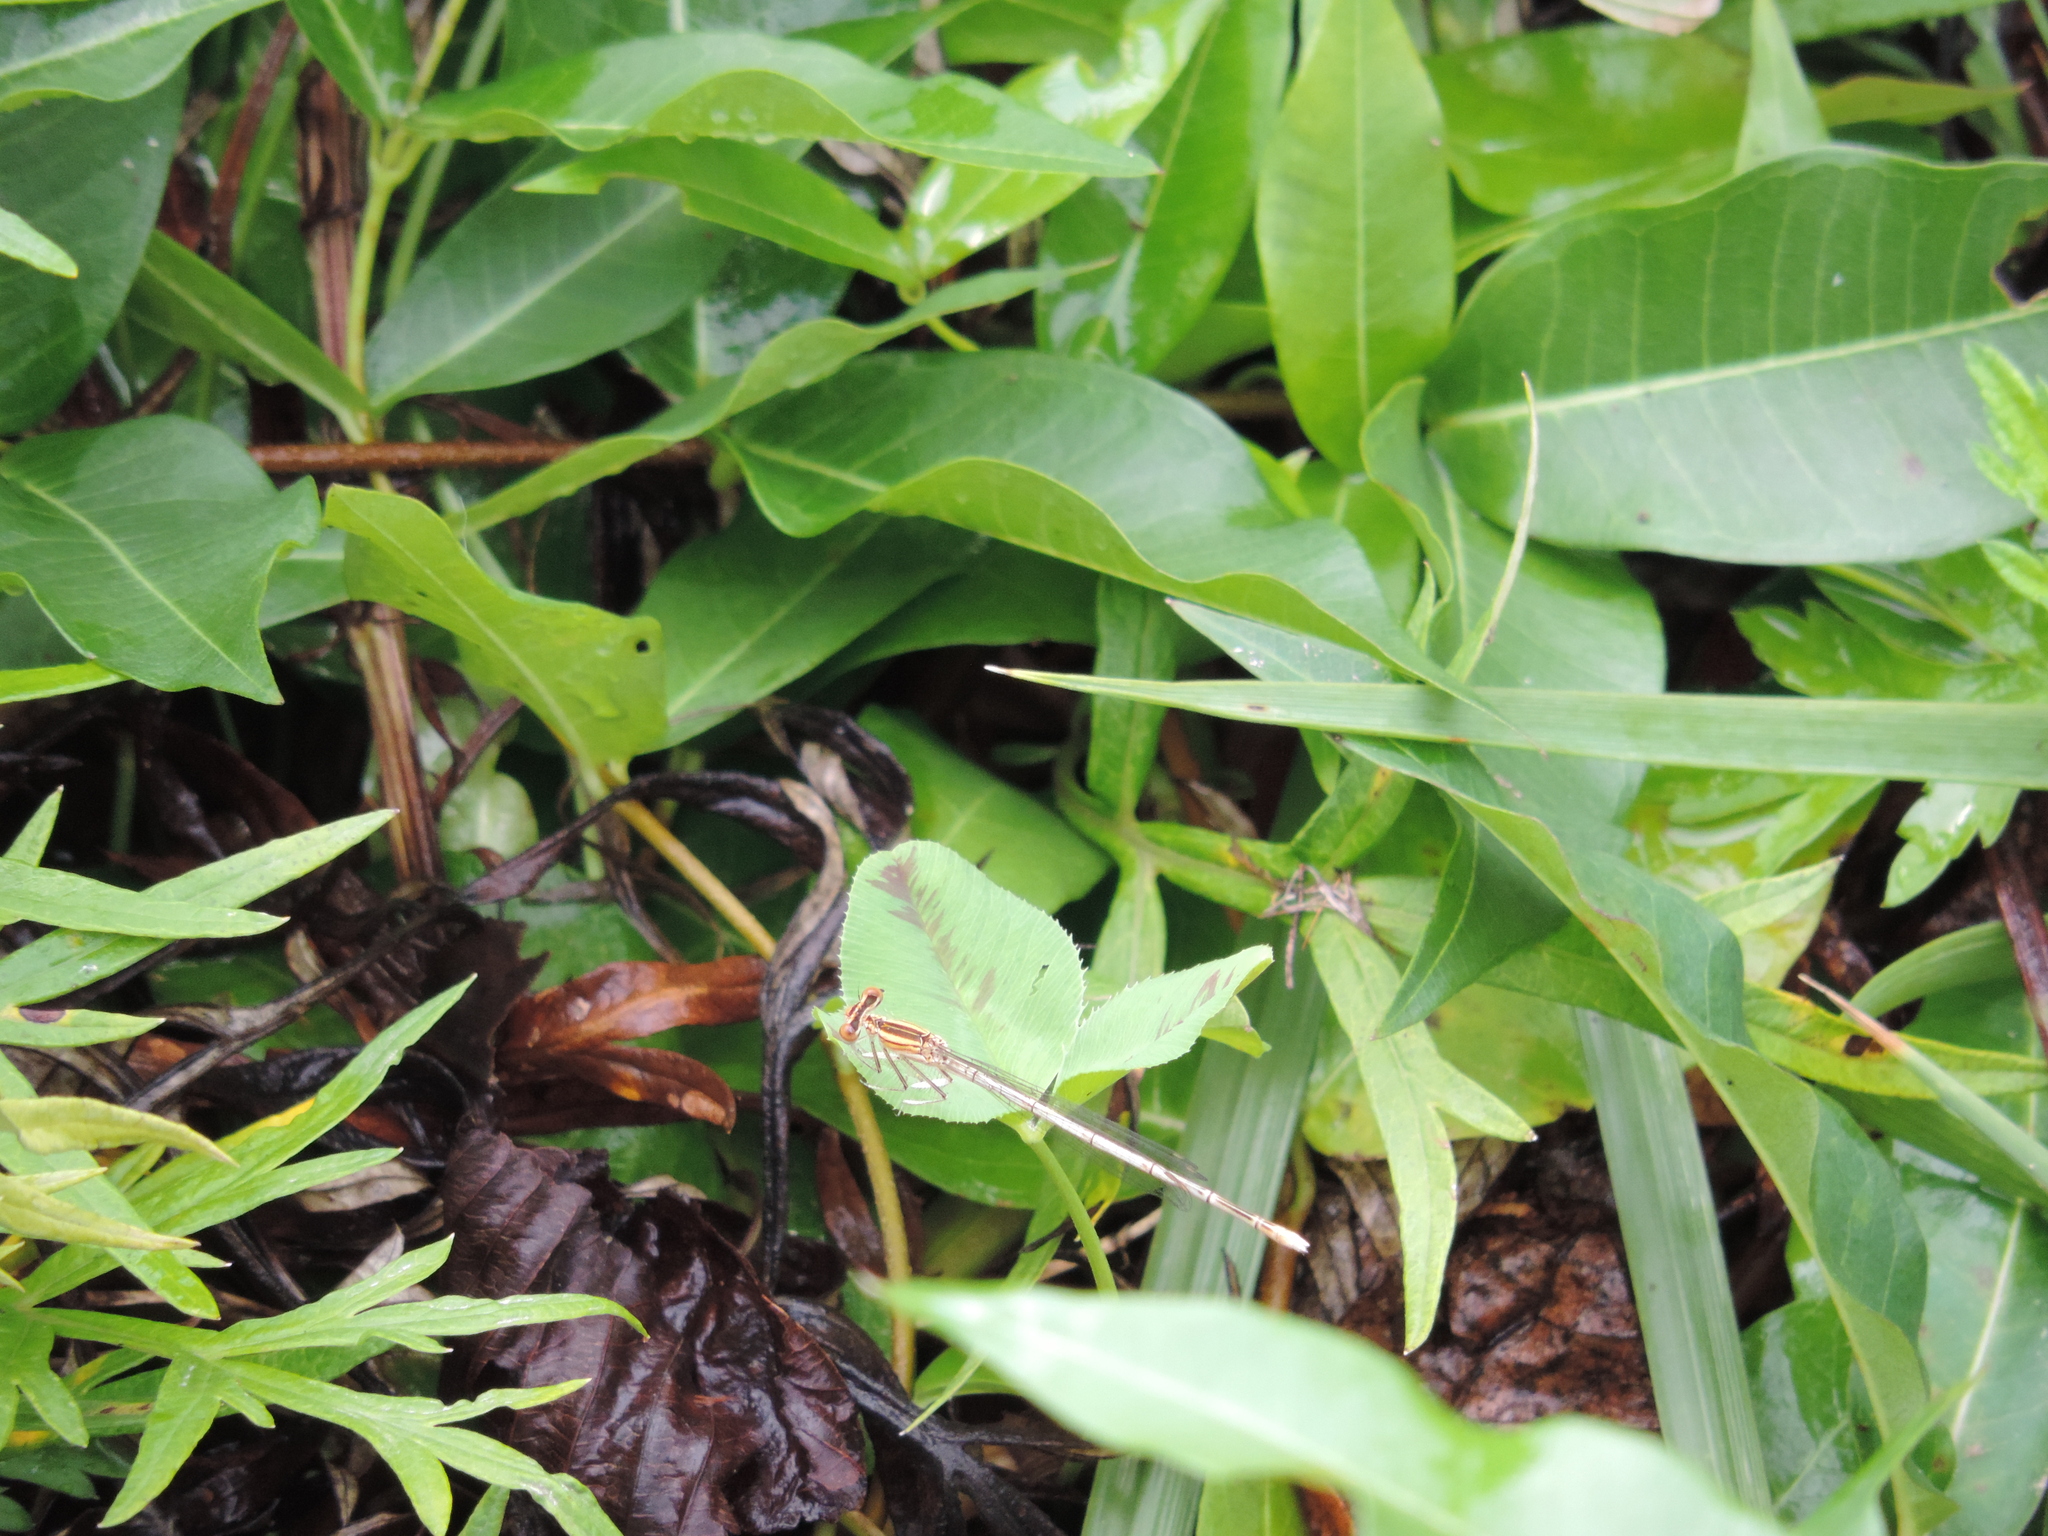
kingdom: Animalia
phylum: Arthropoda
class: Insecta
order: Odonata
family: Platycnemididae
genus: Platycnemis
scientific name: Platycnemis pennipes
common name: White-legged damselfly
